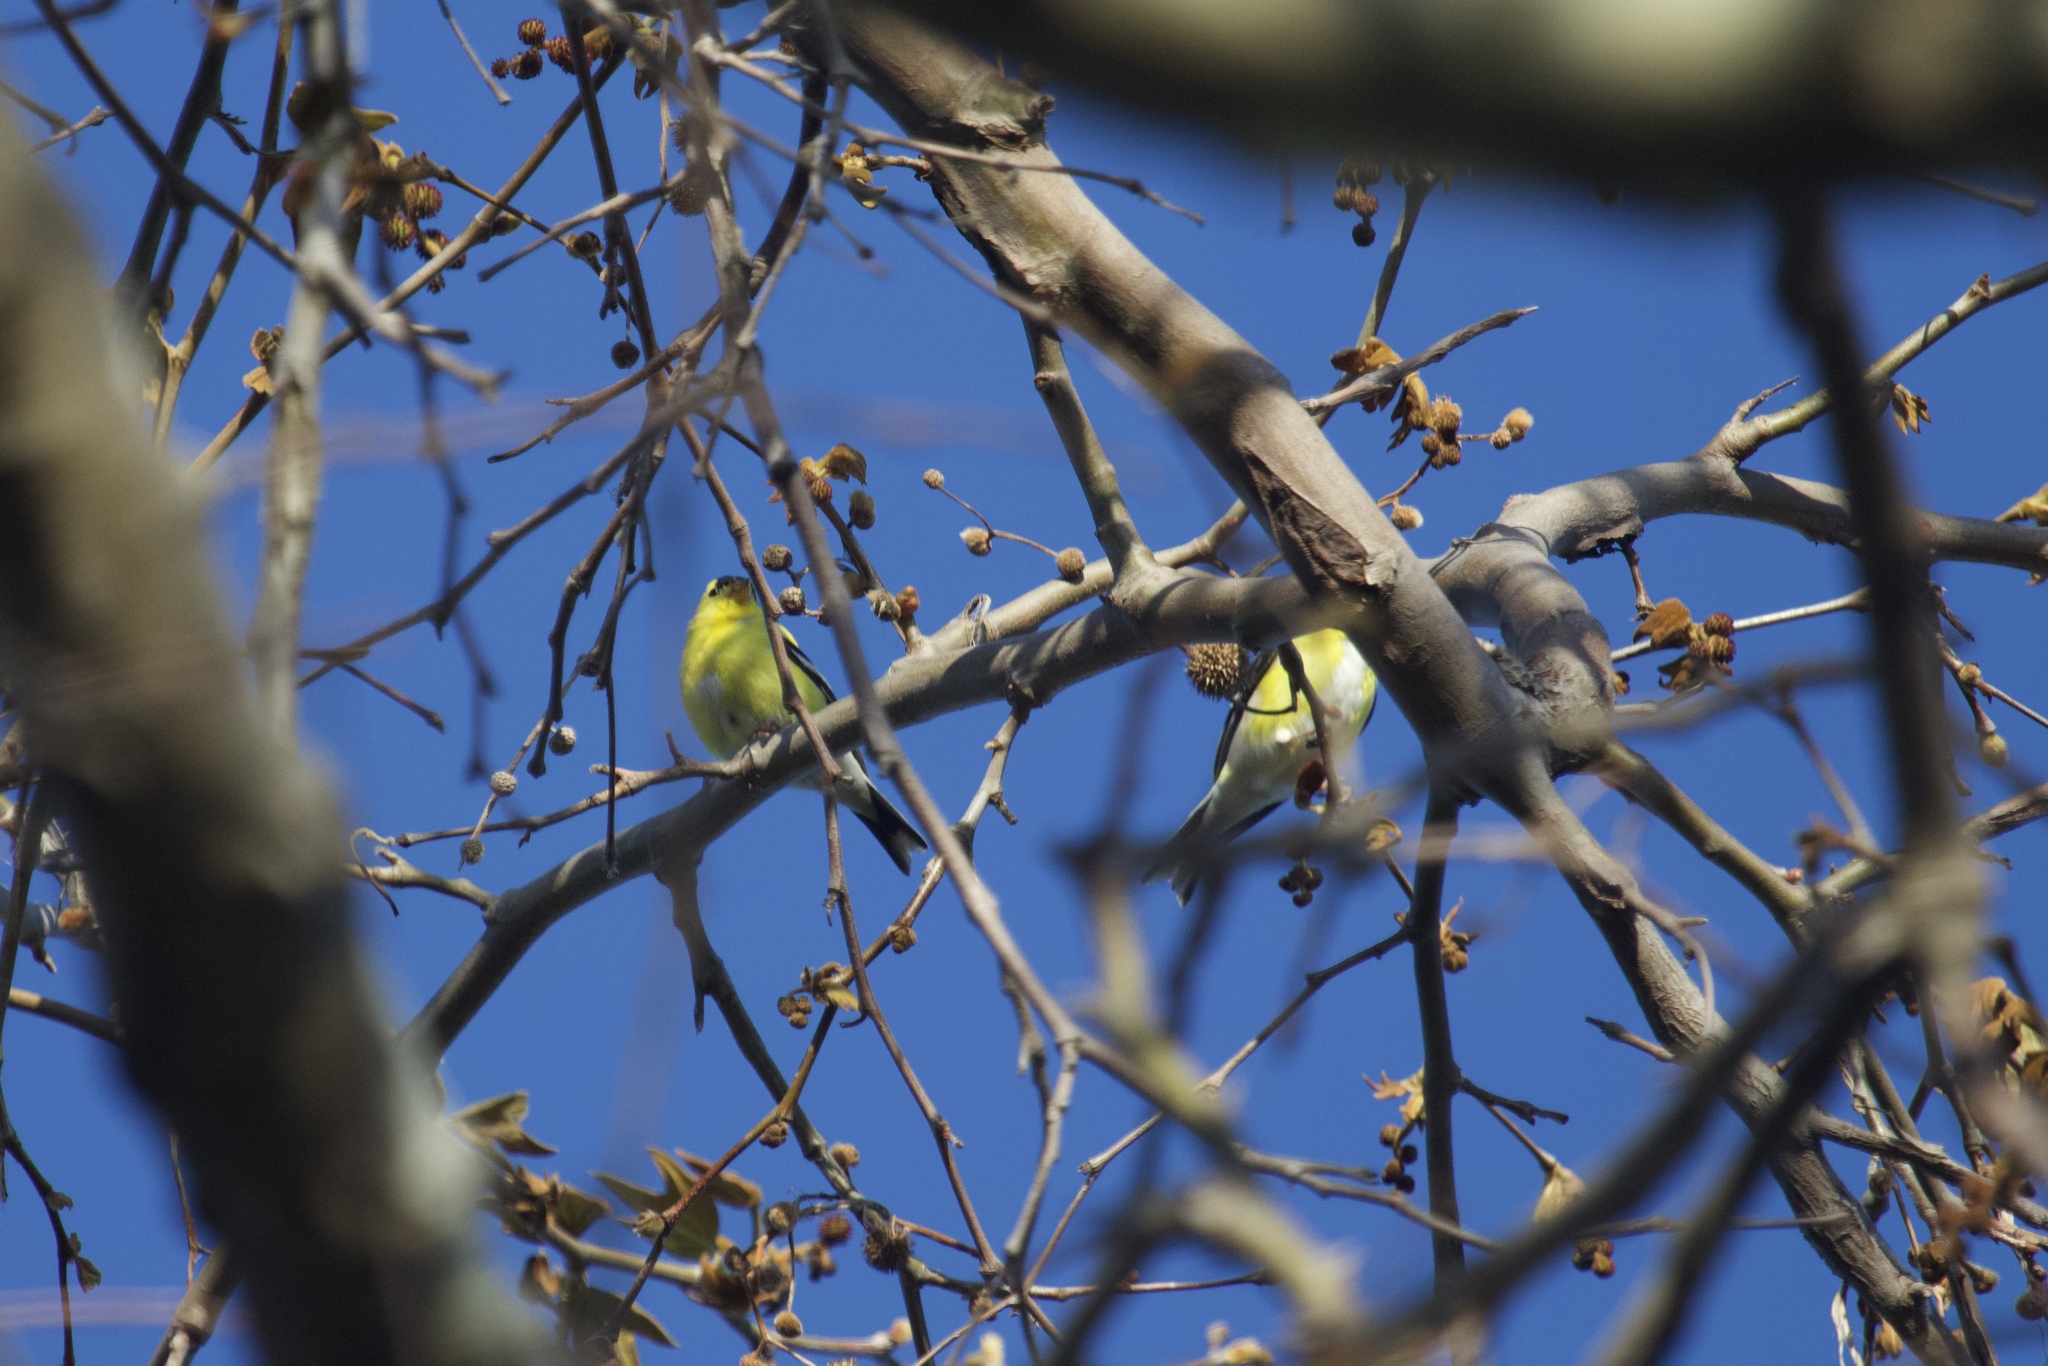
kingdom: Animalia
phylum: Chordata
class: Aves
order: Passeriformes
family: Fringillidae
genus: Spinus
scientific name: Spinus tristis
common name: American goldfinch
